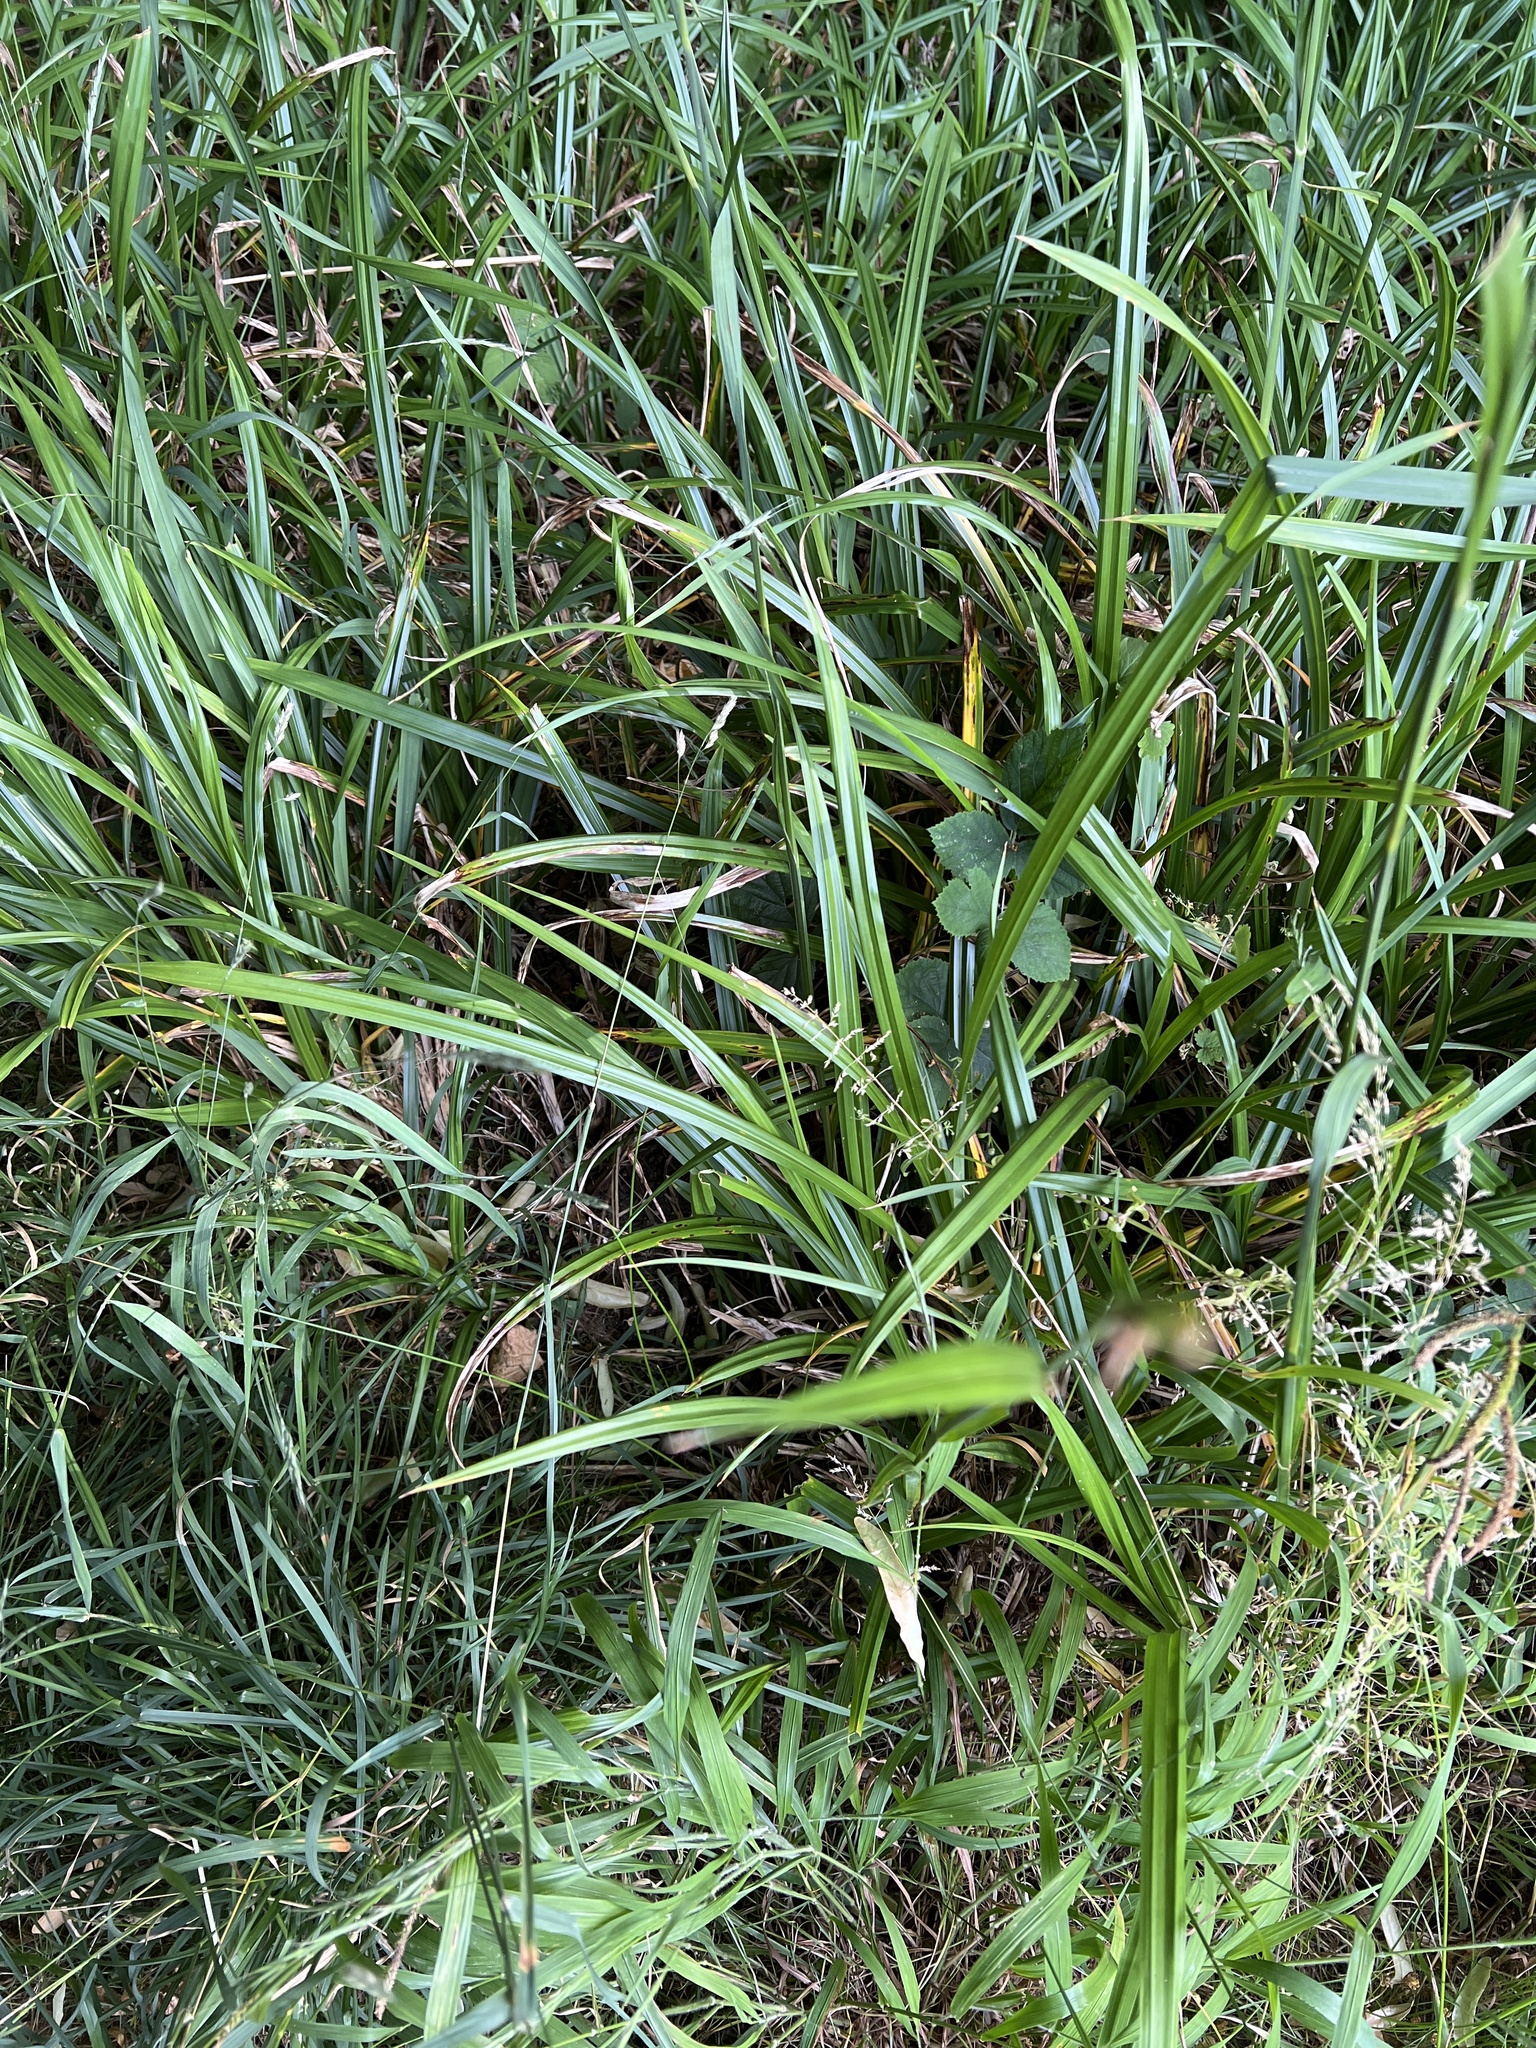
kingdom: Plantae
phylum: Tracheophyta
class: Liliopsida
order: Poales
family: Cyperaceae
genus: Carex
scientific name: Carex pendula
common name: Pendulous sedge
